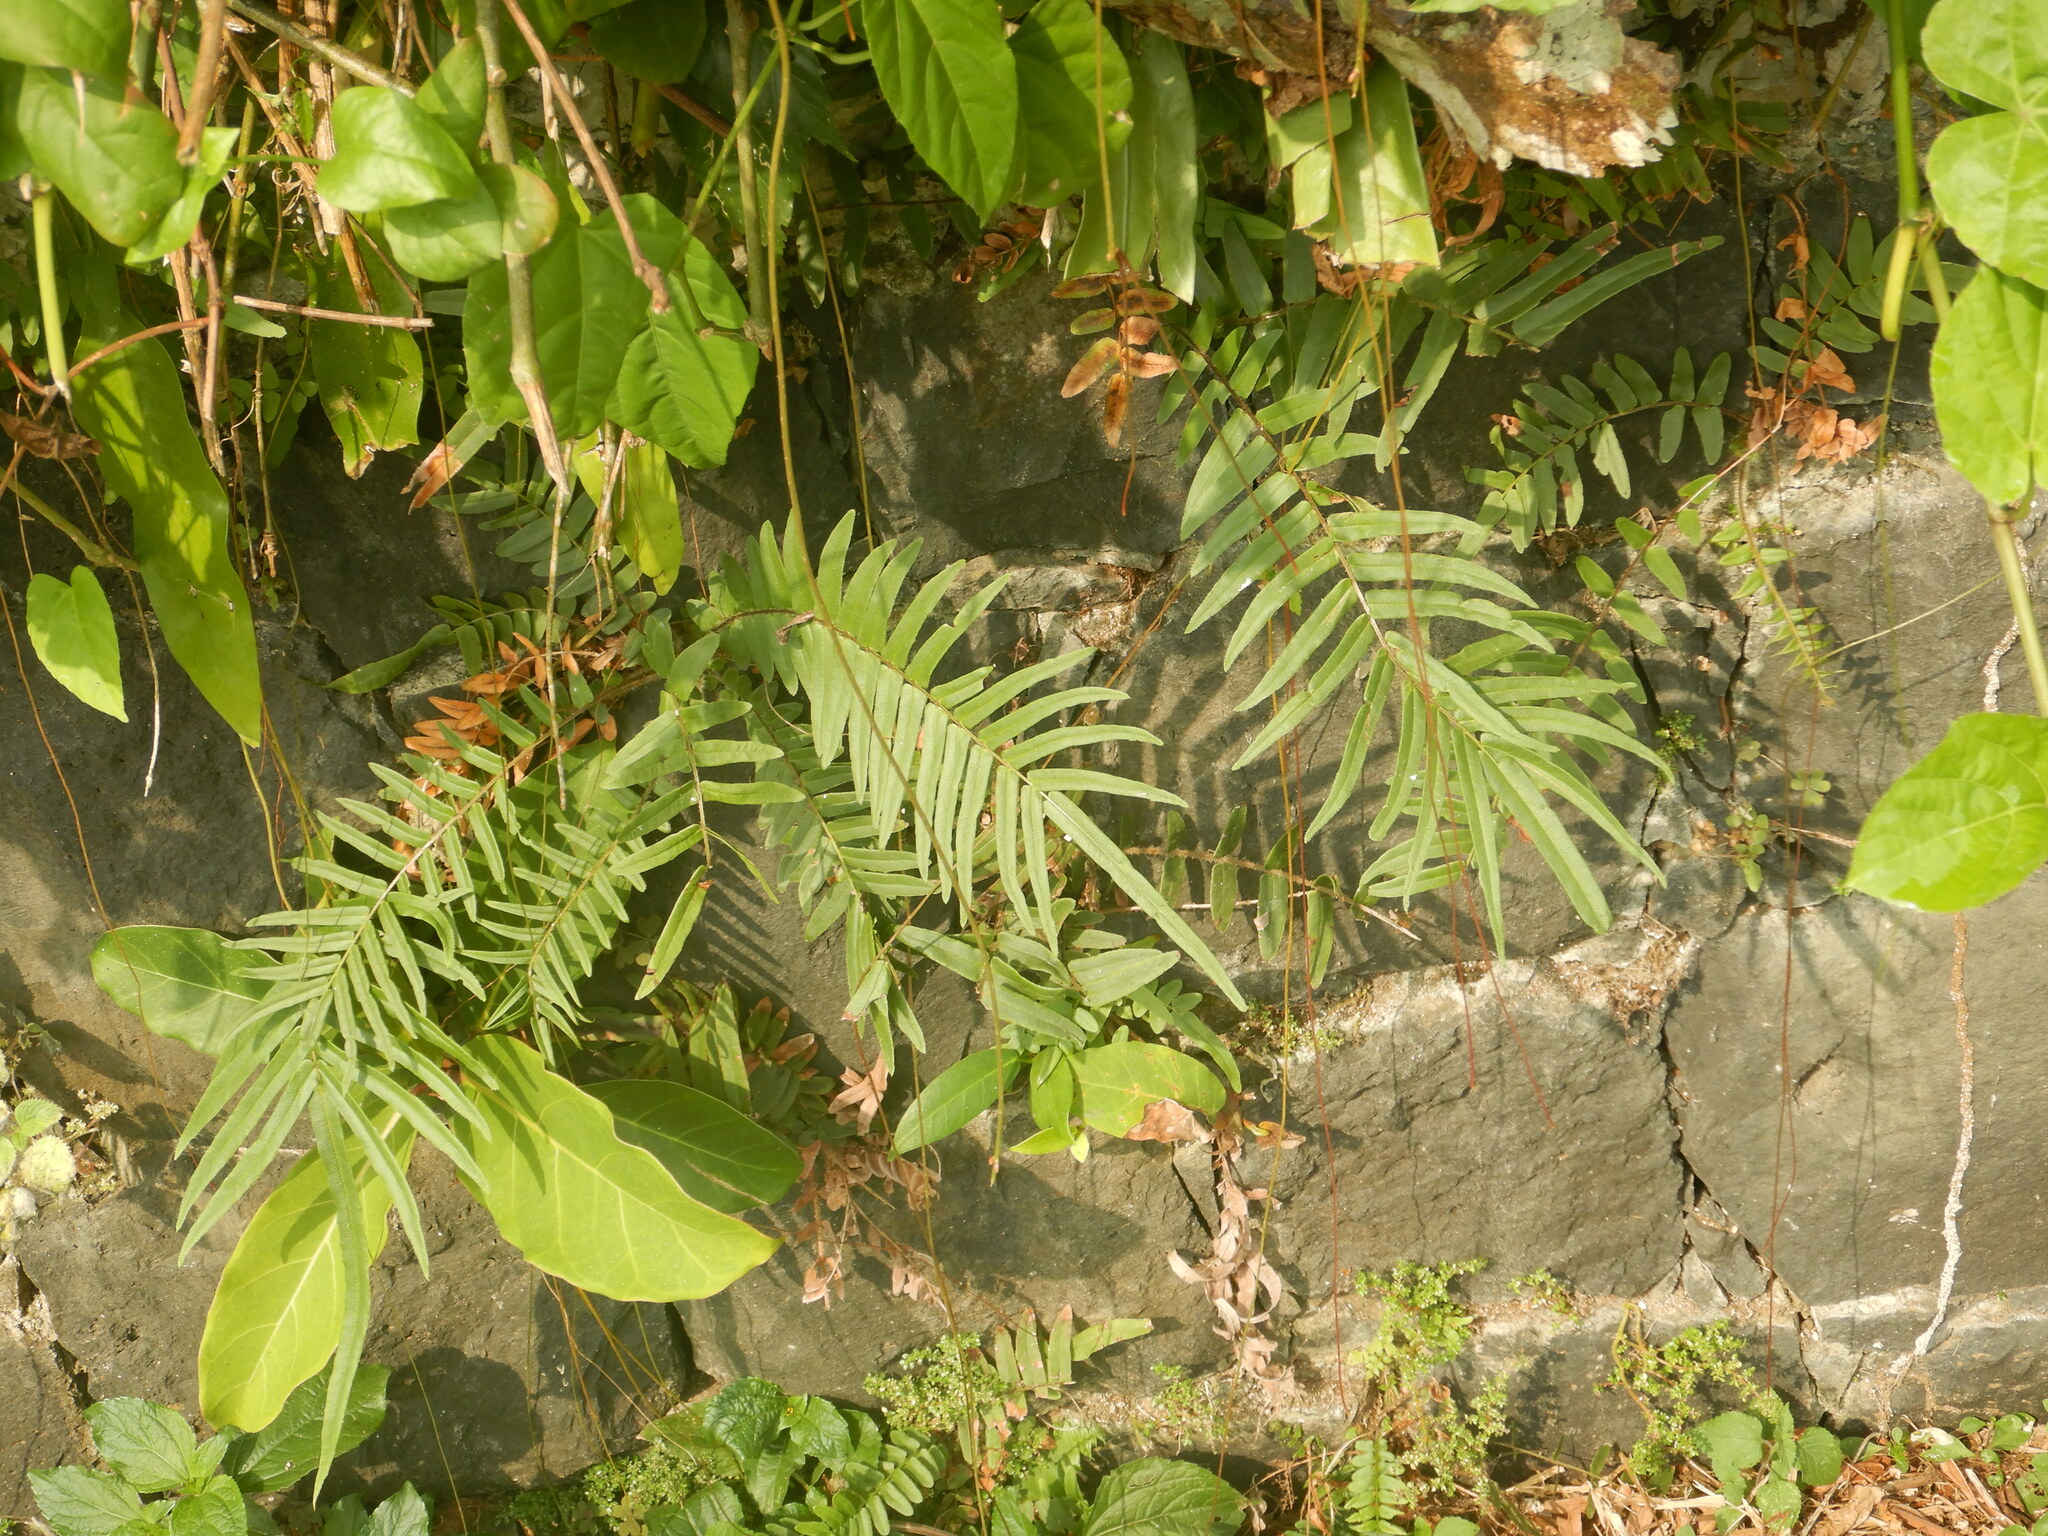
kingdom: Plantae
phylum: Tracheophyta
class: Polypodiopsida
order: Polypodiales
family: Pteridaceae
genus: Pteris
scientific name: Pteris vittata
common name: Ladder brake
